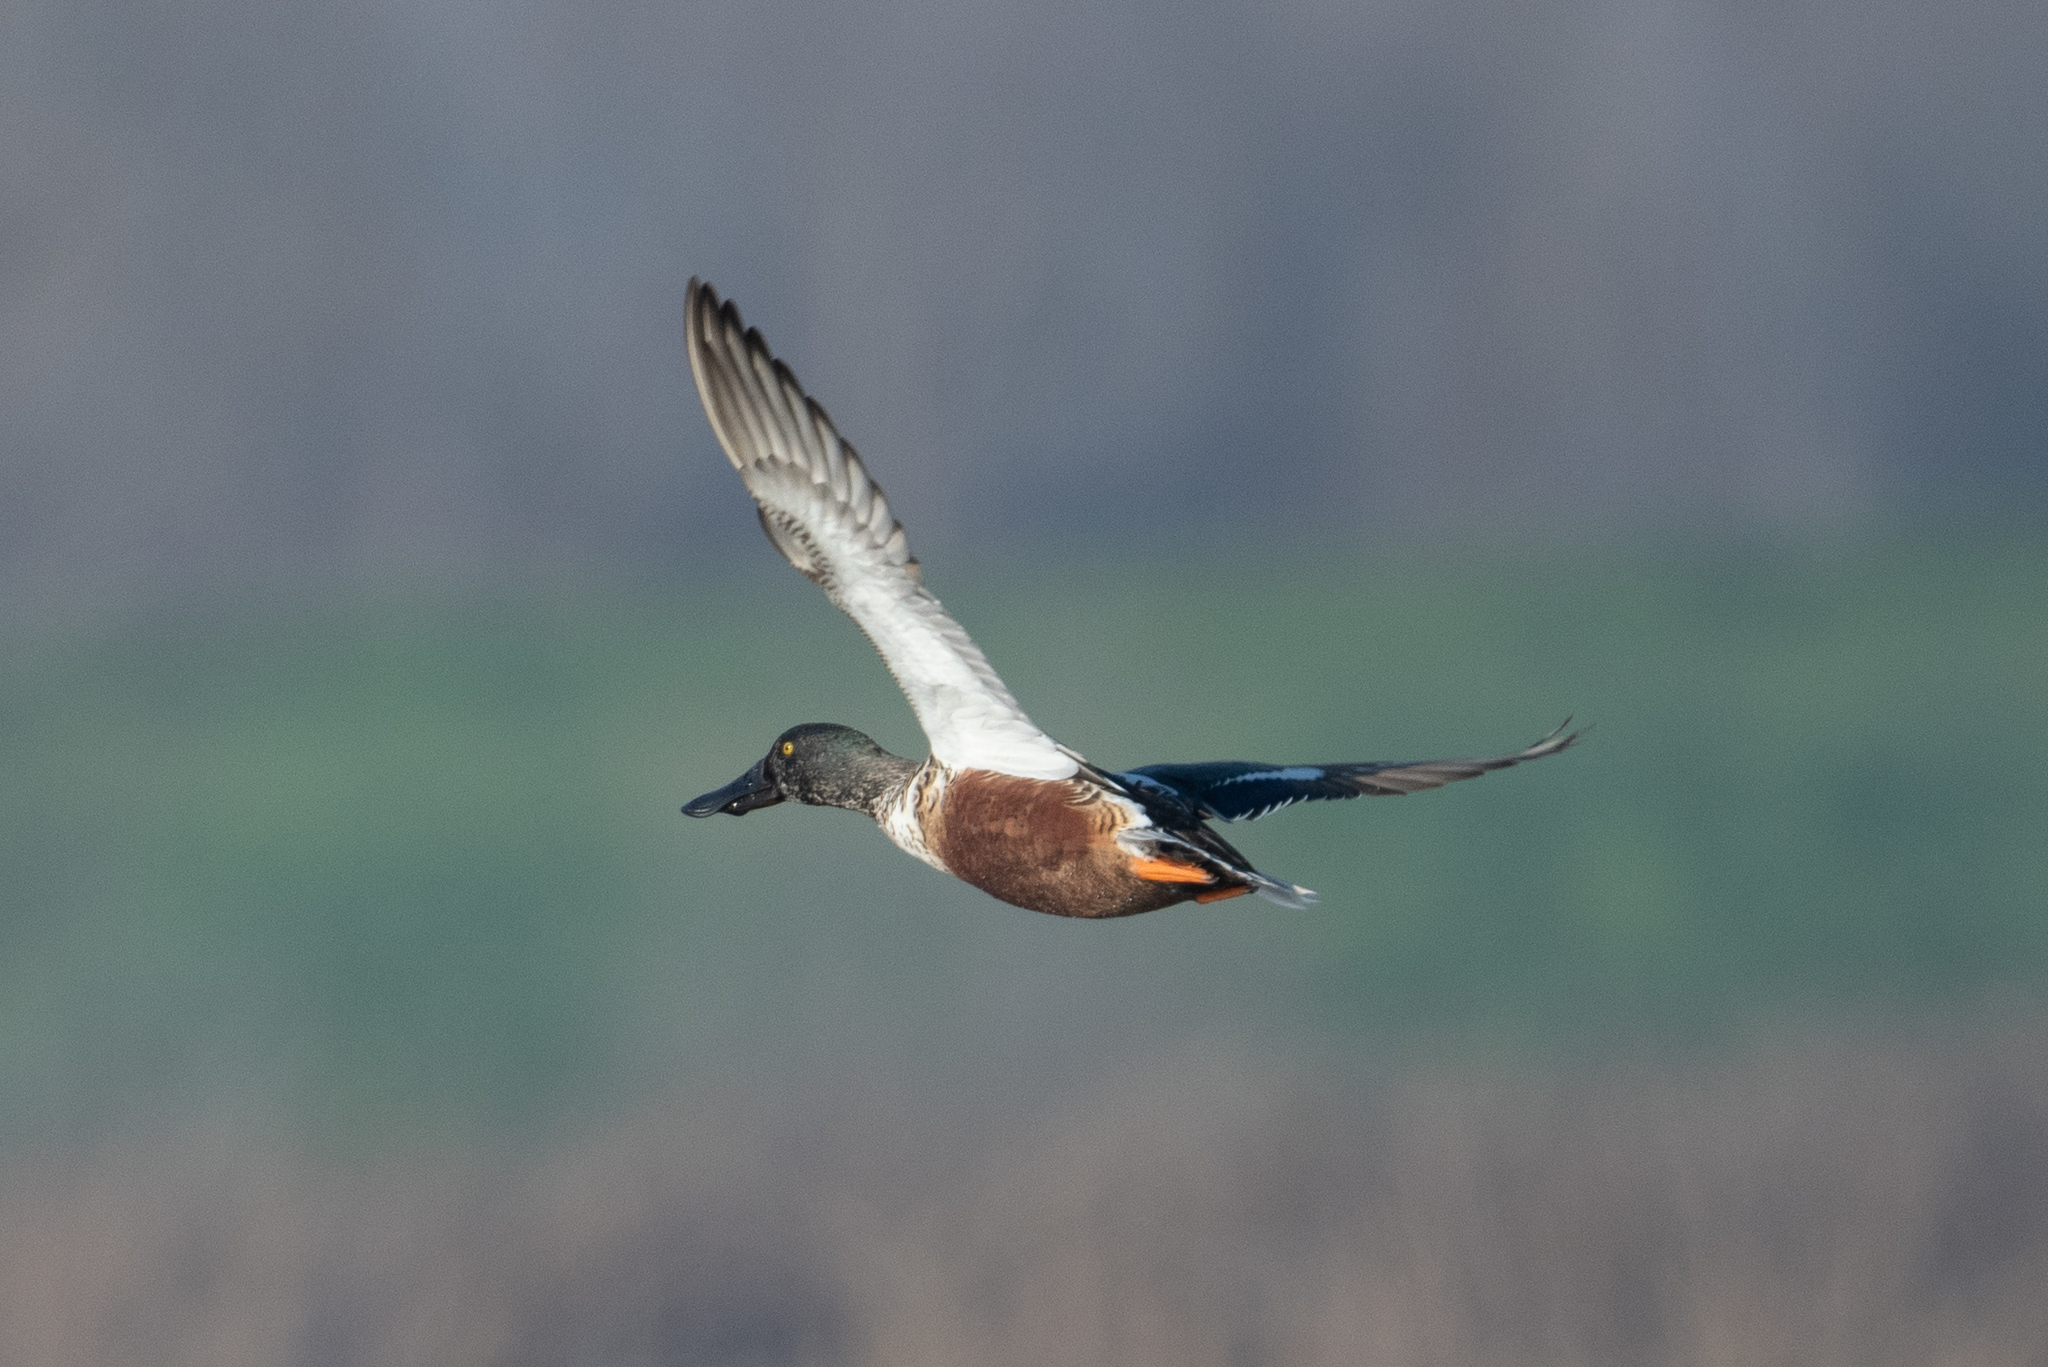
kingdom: Animalia
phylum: Chordata
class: Aves
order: Anseriformes
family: Anatidae
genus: Spatula
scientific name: Spatula clypeata
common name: Northern shoveler
